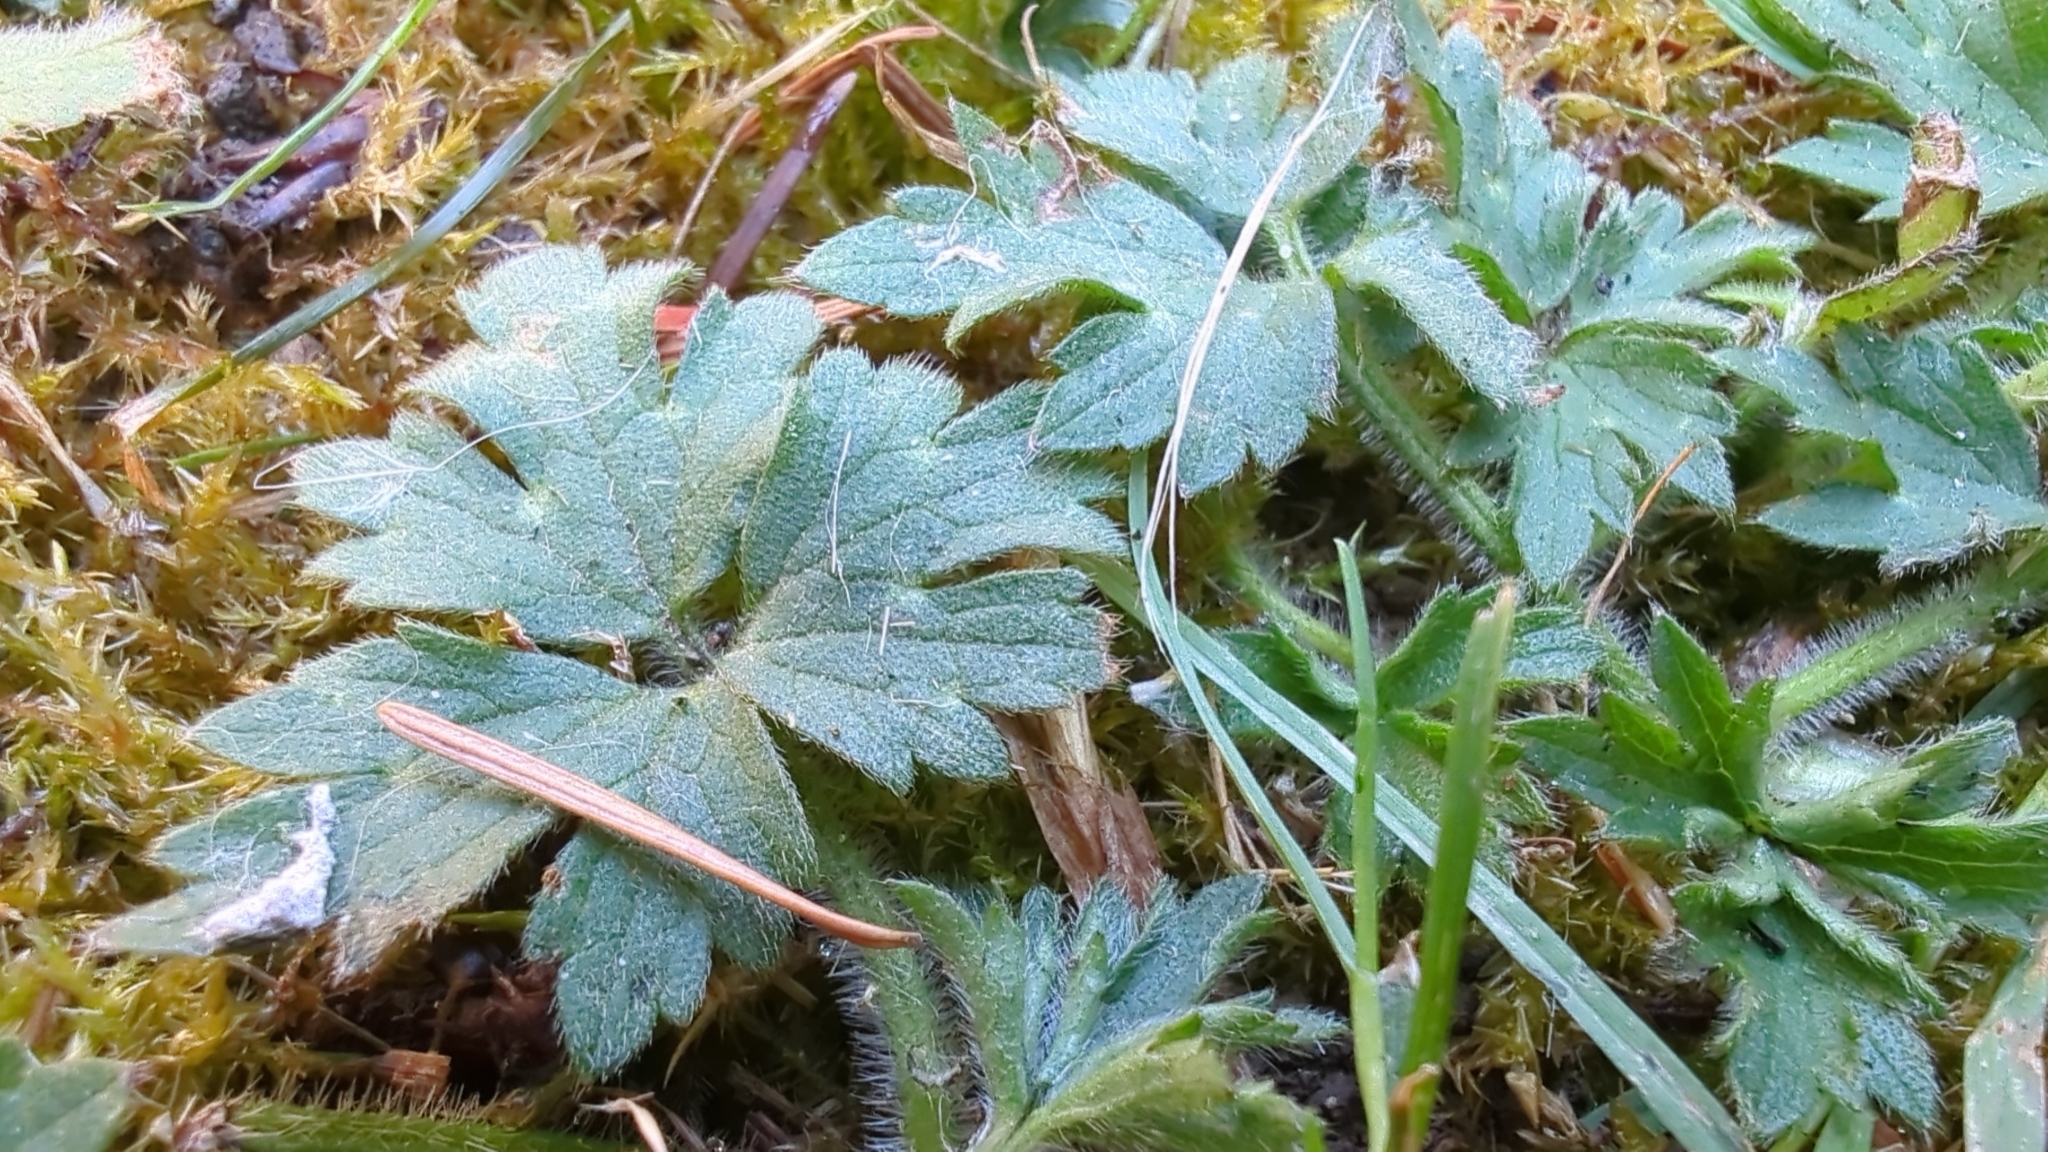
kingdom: Plantae
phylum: Tracheophyta
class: Magnoliopsida
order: Ranunculales
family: Ranunculaceae
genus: Ranunculus
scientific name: Ranunculus repens
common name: Creeping buttercup
